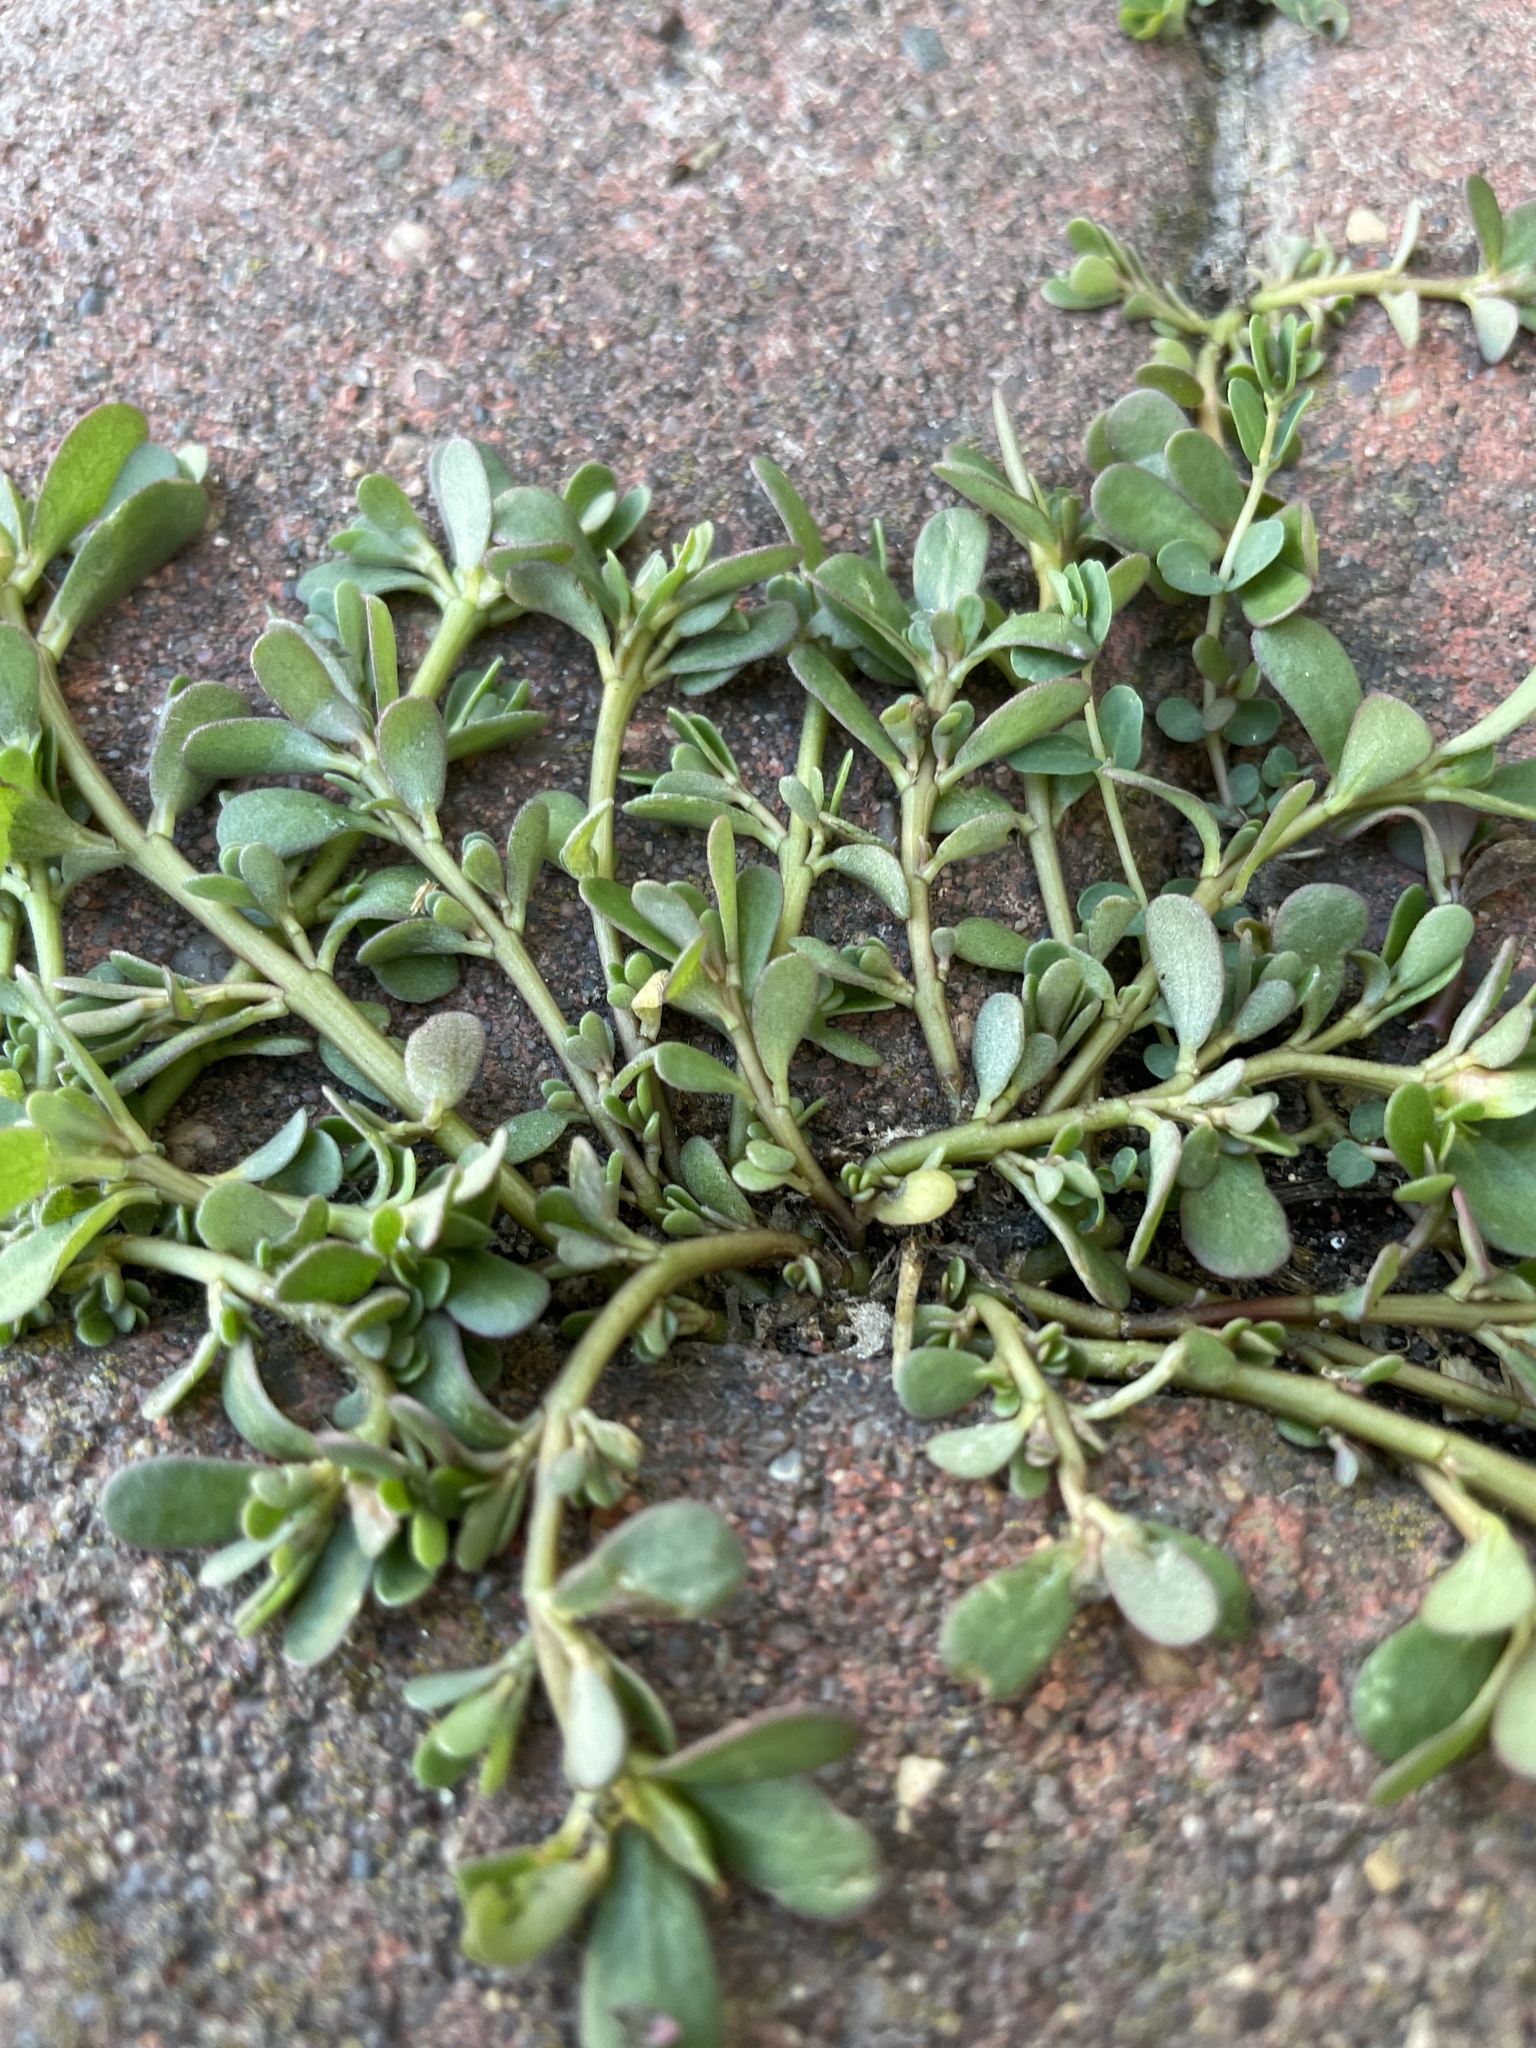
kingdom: Plantae
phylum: Tracheophyta
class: Magnoliopsida
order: Caryophyllales
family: Portulacaceae
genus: Portulaca
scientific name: Portulaca oleracea
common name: Common purslane
